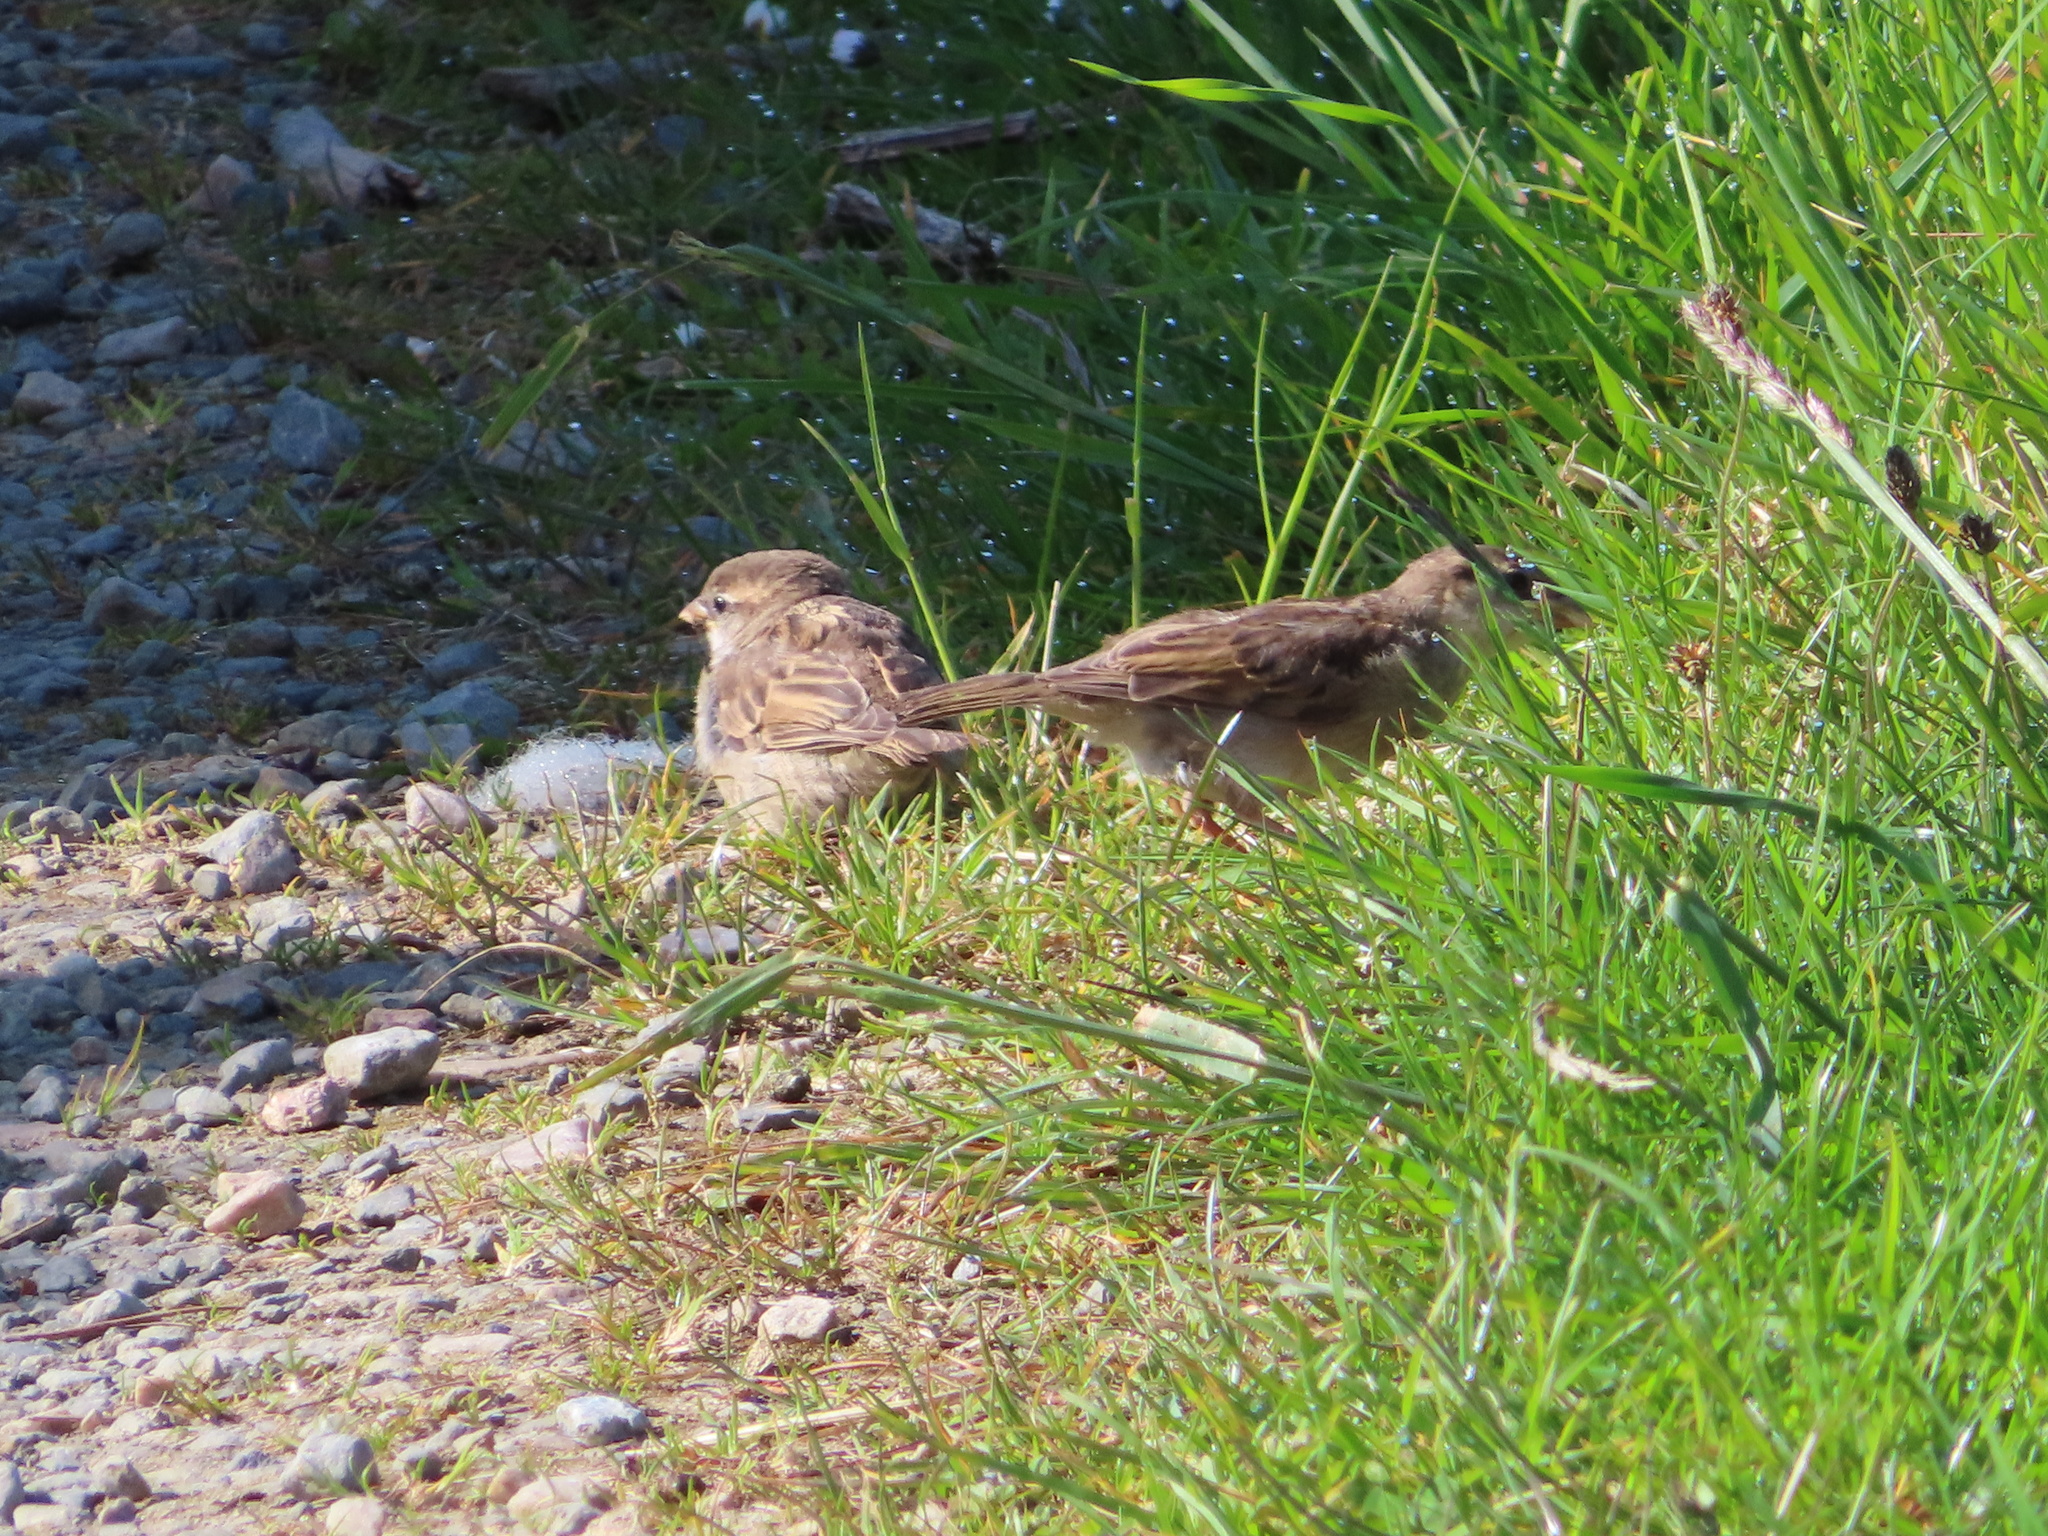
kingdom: Animalia
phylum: Chordata
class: Aves
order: Passeriformes
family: Passeridae
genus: Passer
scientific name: Passer domesticus
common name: House sparrow
